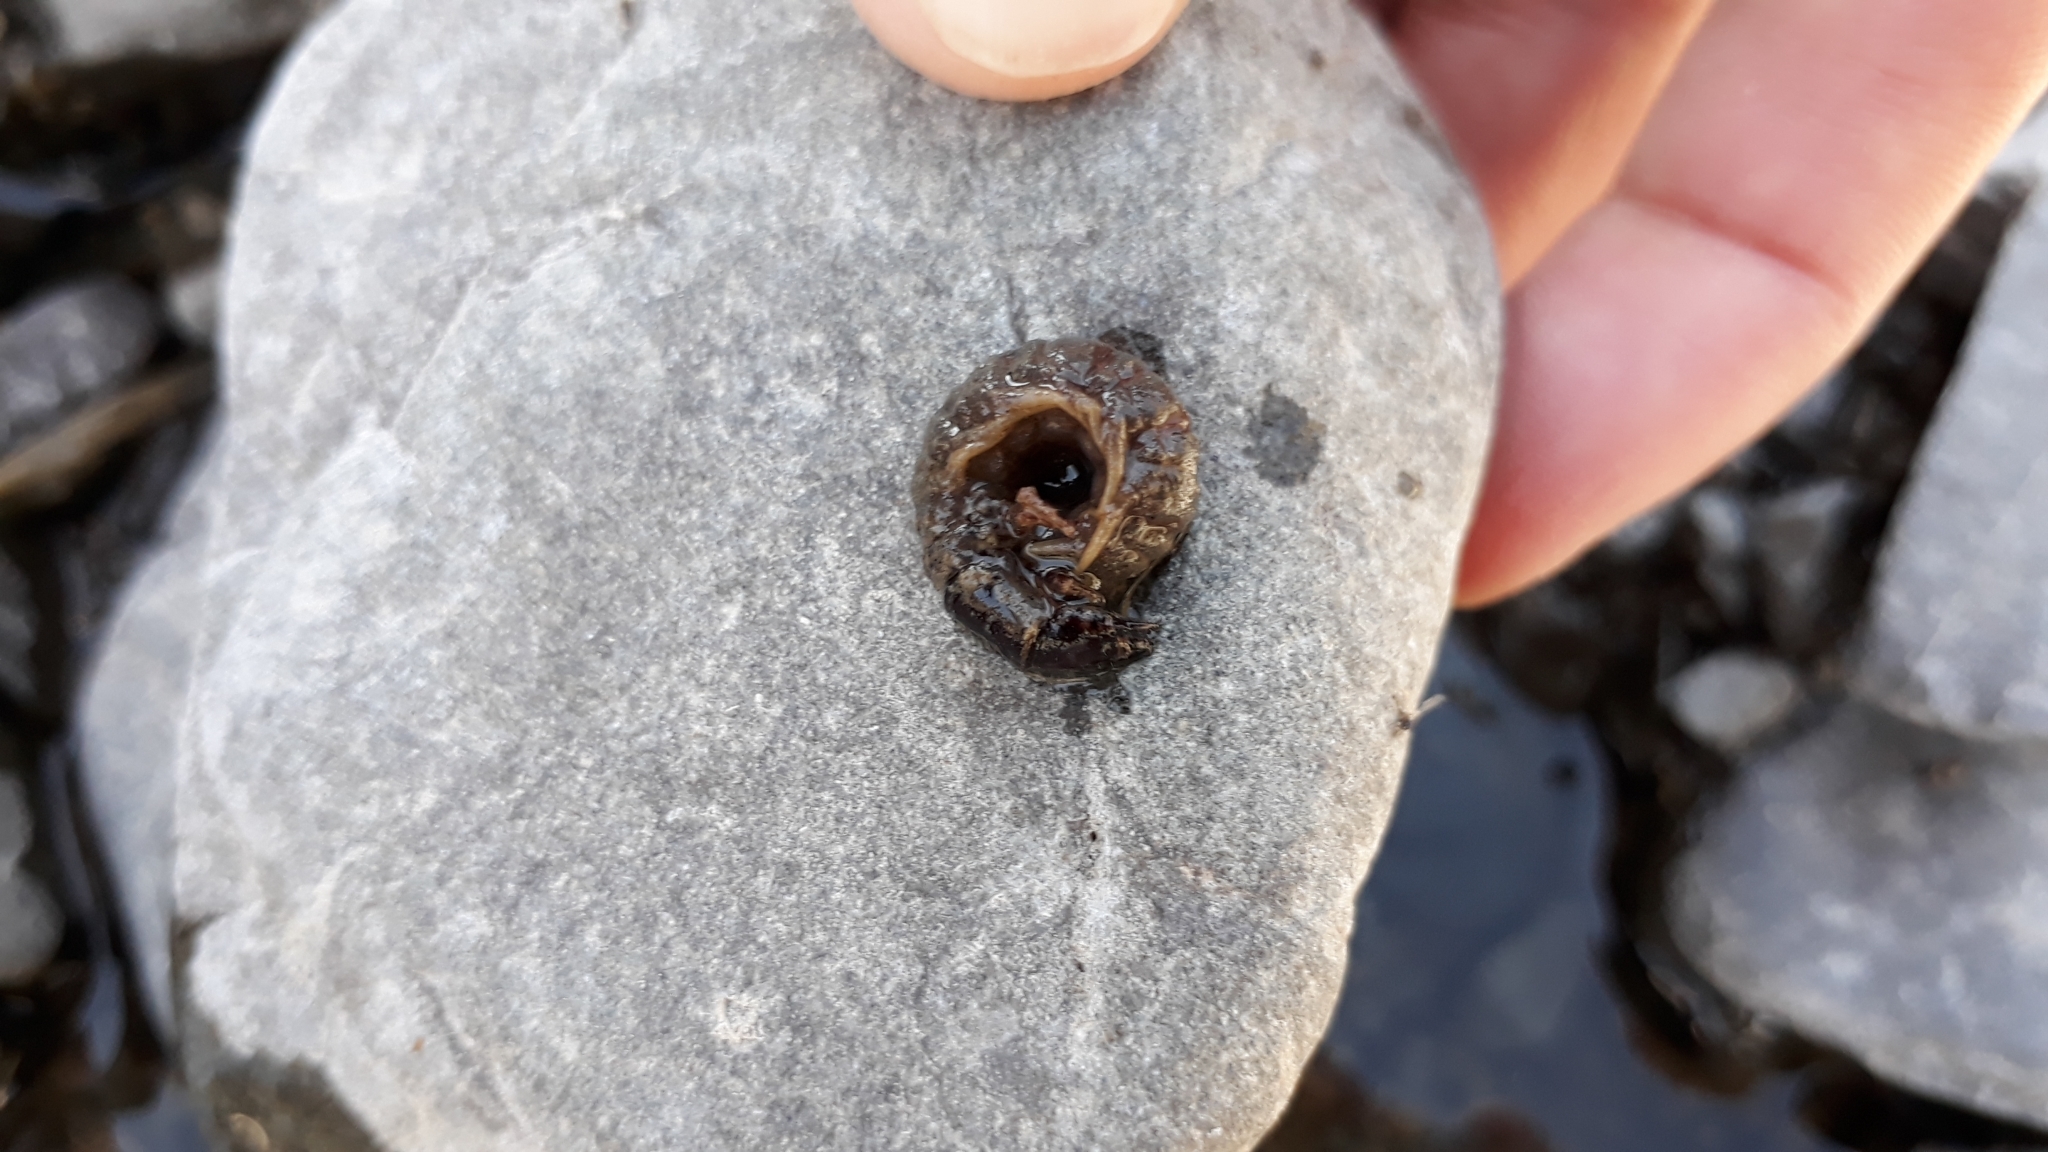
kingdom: Animalia
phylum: Arthropoda
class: Insecta
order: Megaloptera
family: Corydalidae
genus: Archichauliodes
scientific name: Archichauliodes diversus
